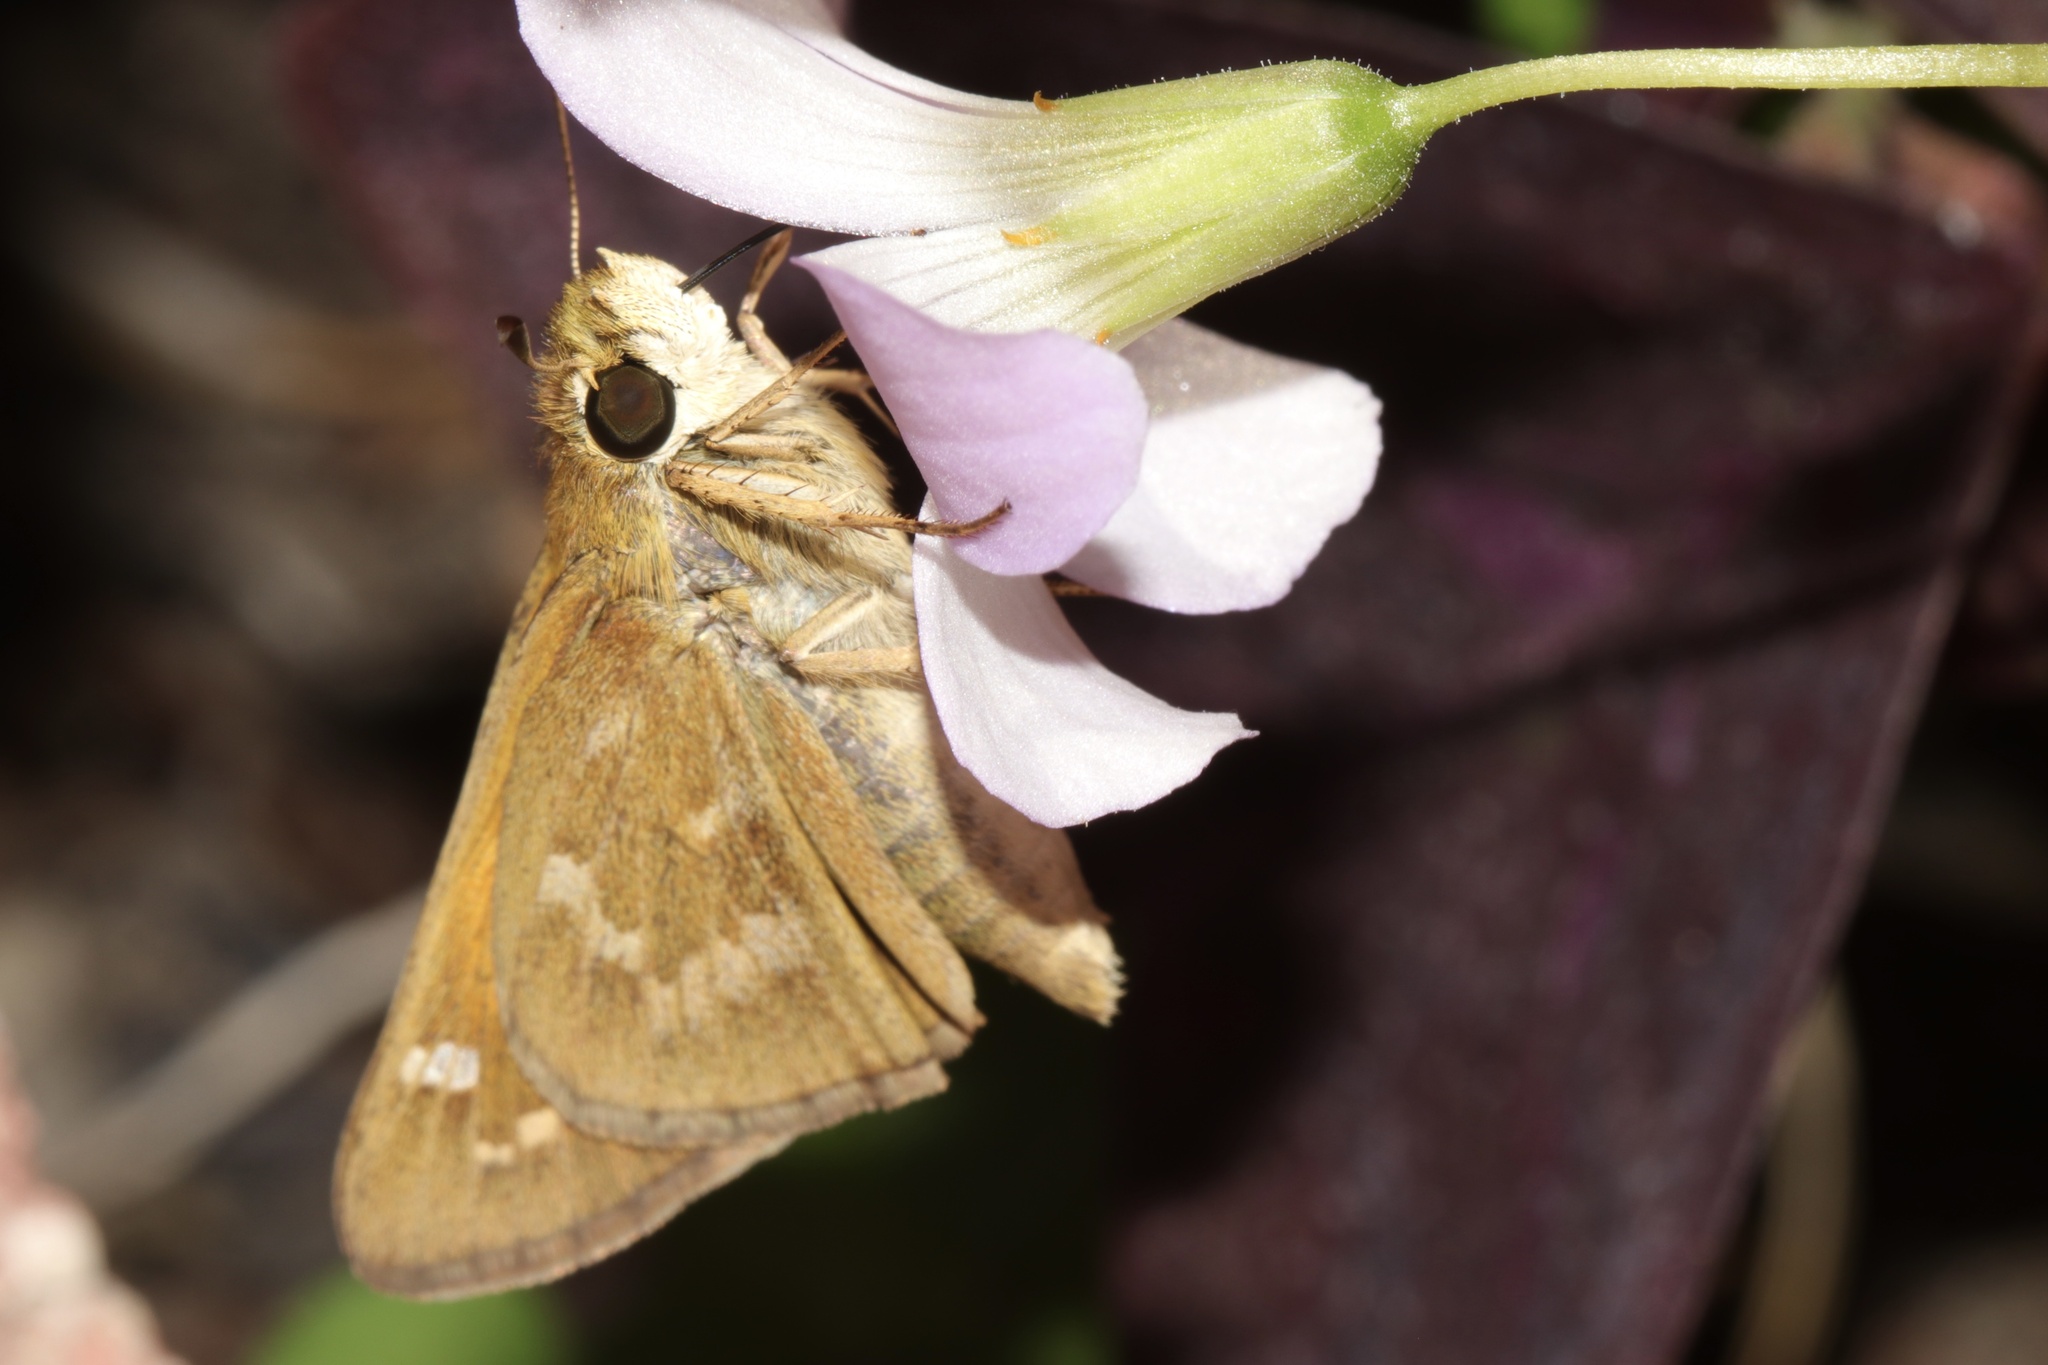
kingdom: Animalia
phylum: Arthropoda
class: Insecta
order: Lepidoptera
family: Hesperiidae
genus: Atalopedes
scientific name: Atalopedes
